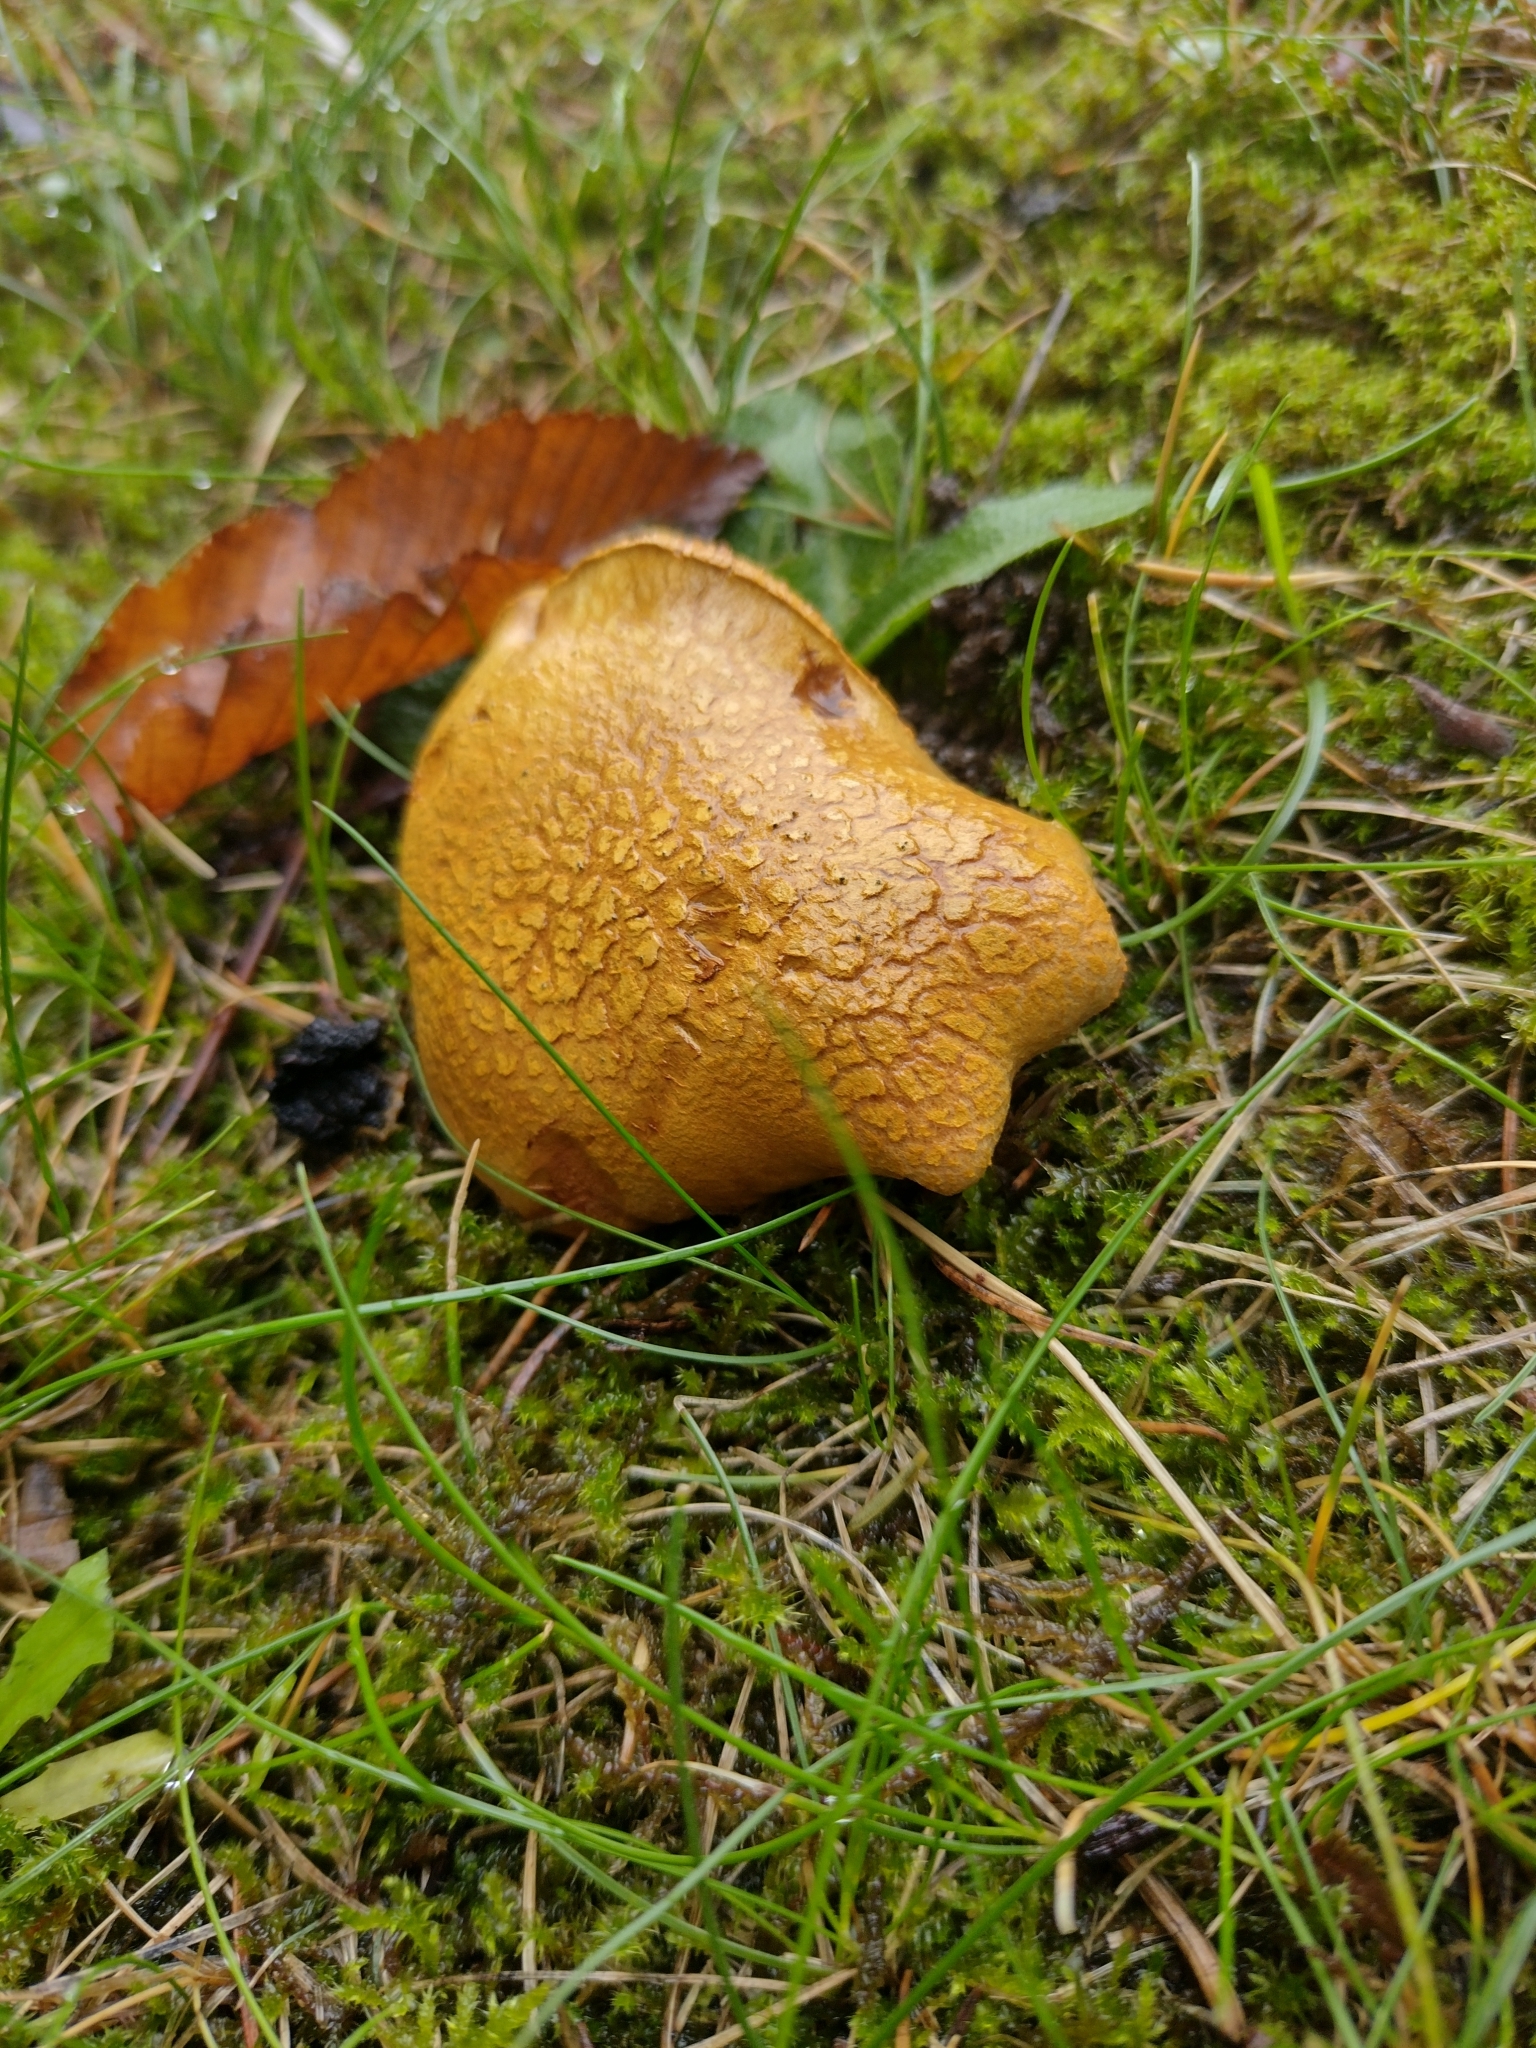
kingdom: Fungi
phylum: Basidiomycota
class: Agaricomycetes
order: Boletales
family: Boletaceae
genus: Chalciporus
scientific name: Chalciporus piperatus
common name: Peppery bolete
